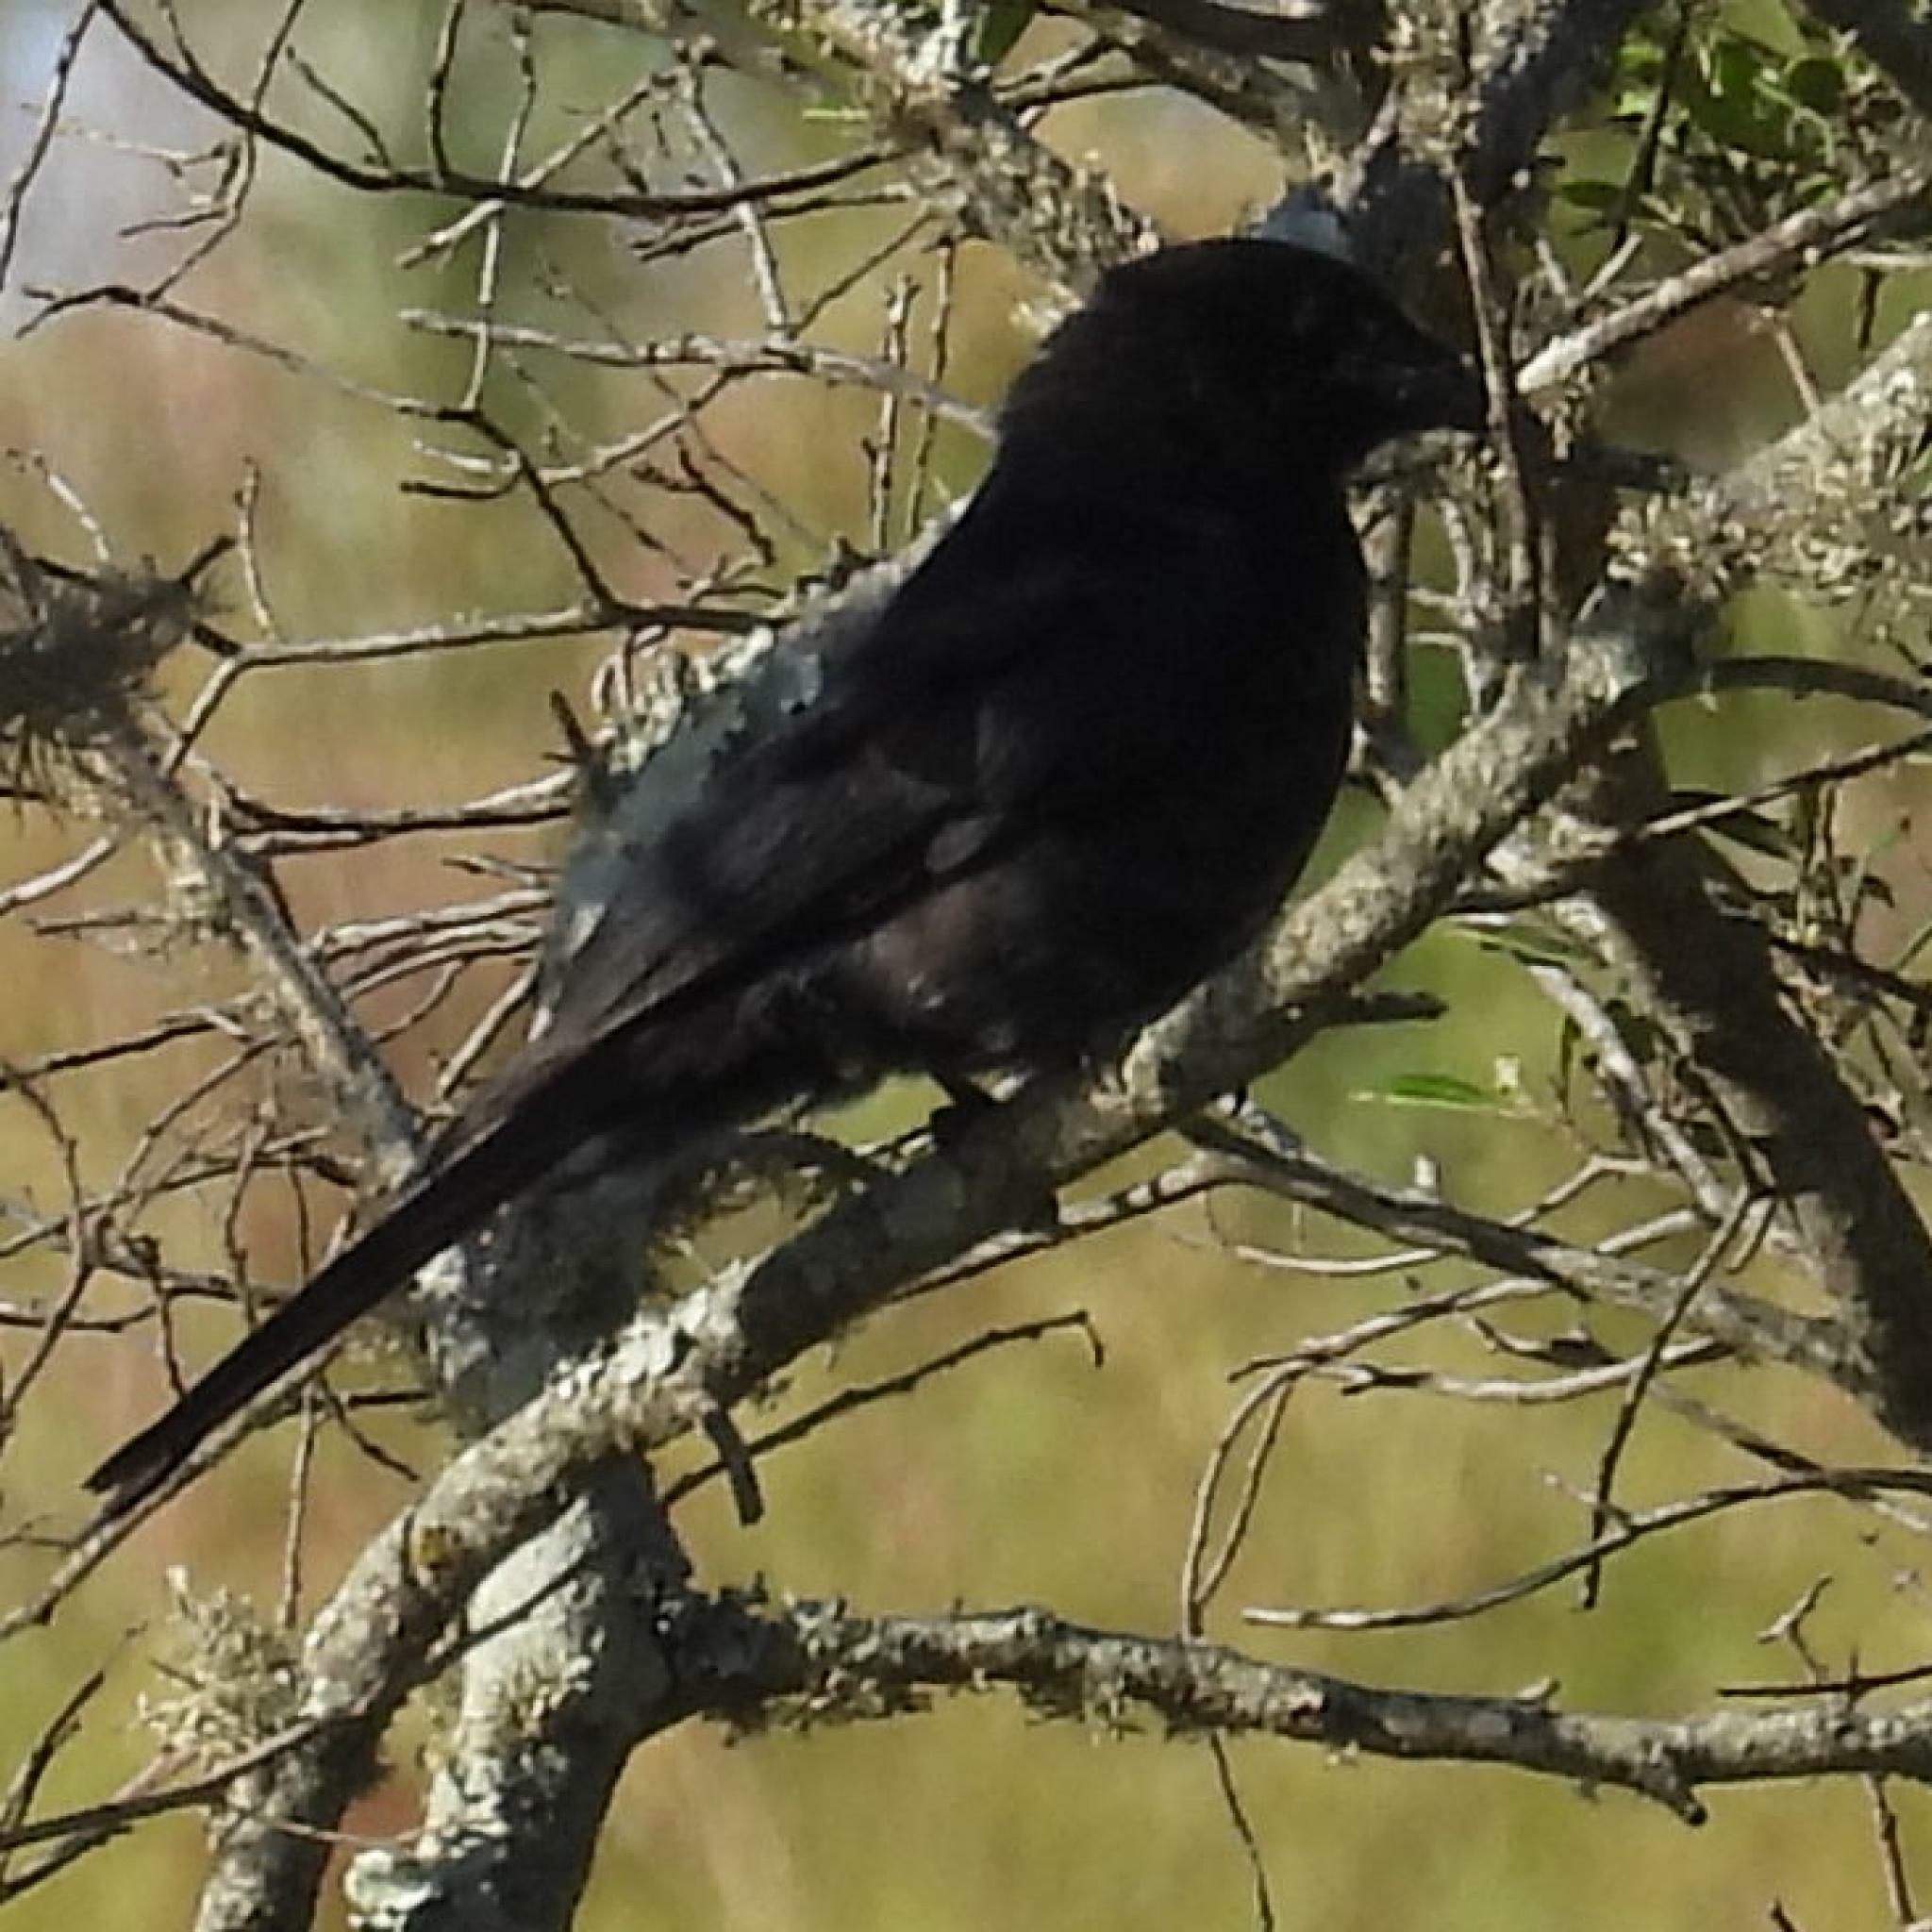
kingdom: Animalia
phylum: Chordata
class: Aves
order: Passeriformes
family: Dicruridae
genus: Dicrurus
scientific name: Dicrurus adsimilis
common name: Fork-tailed drongo
